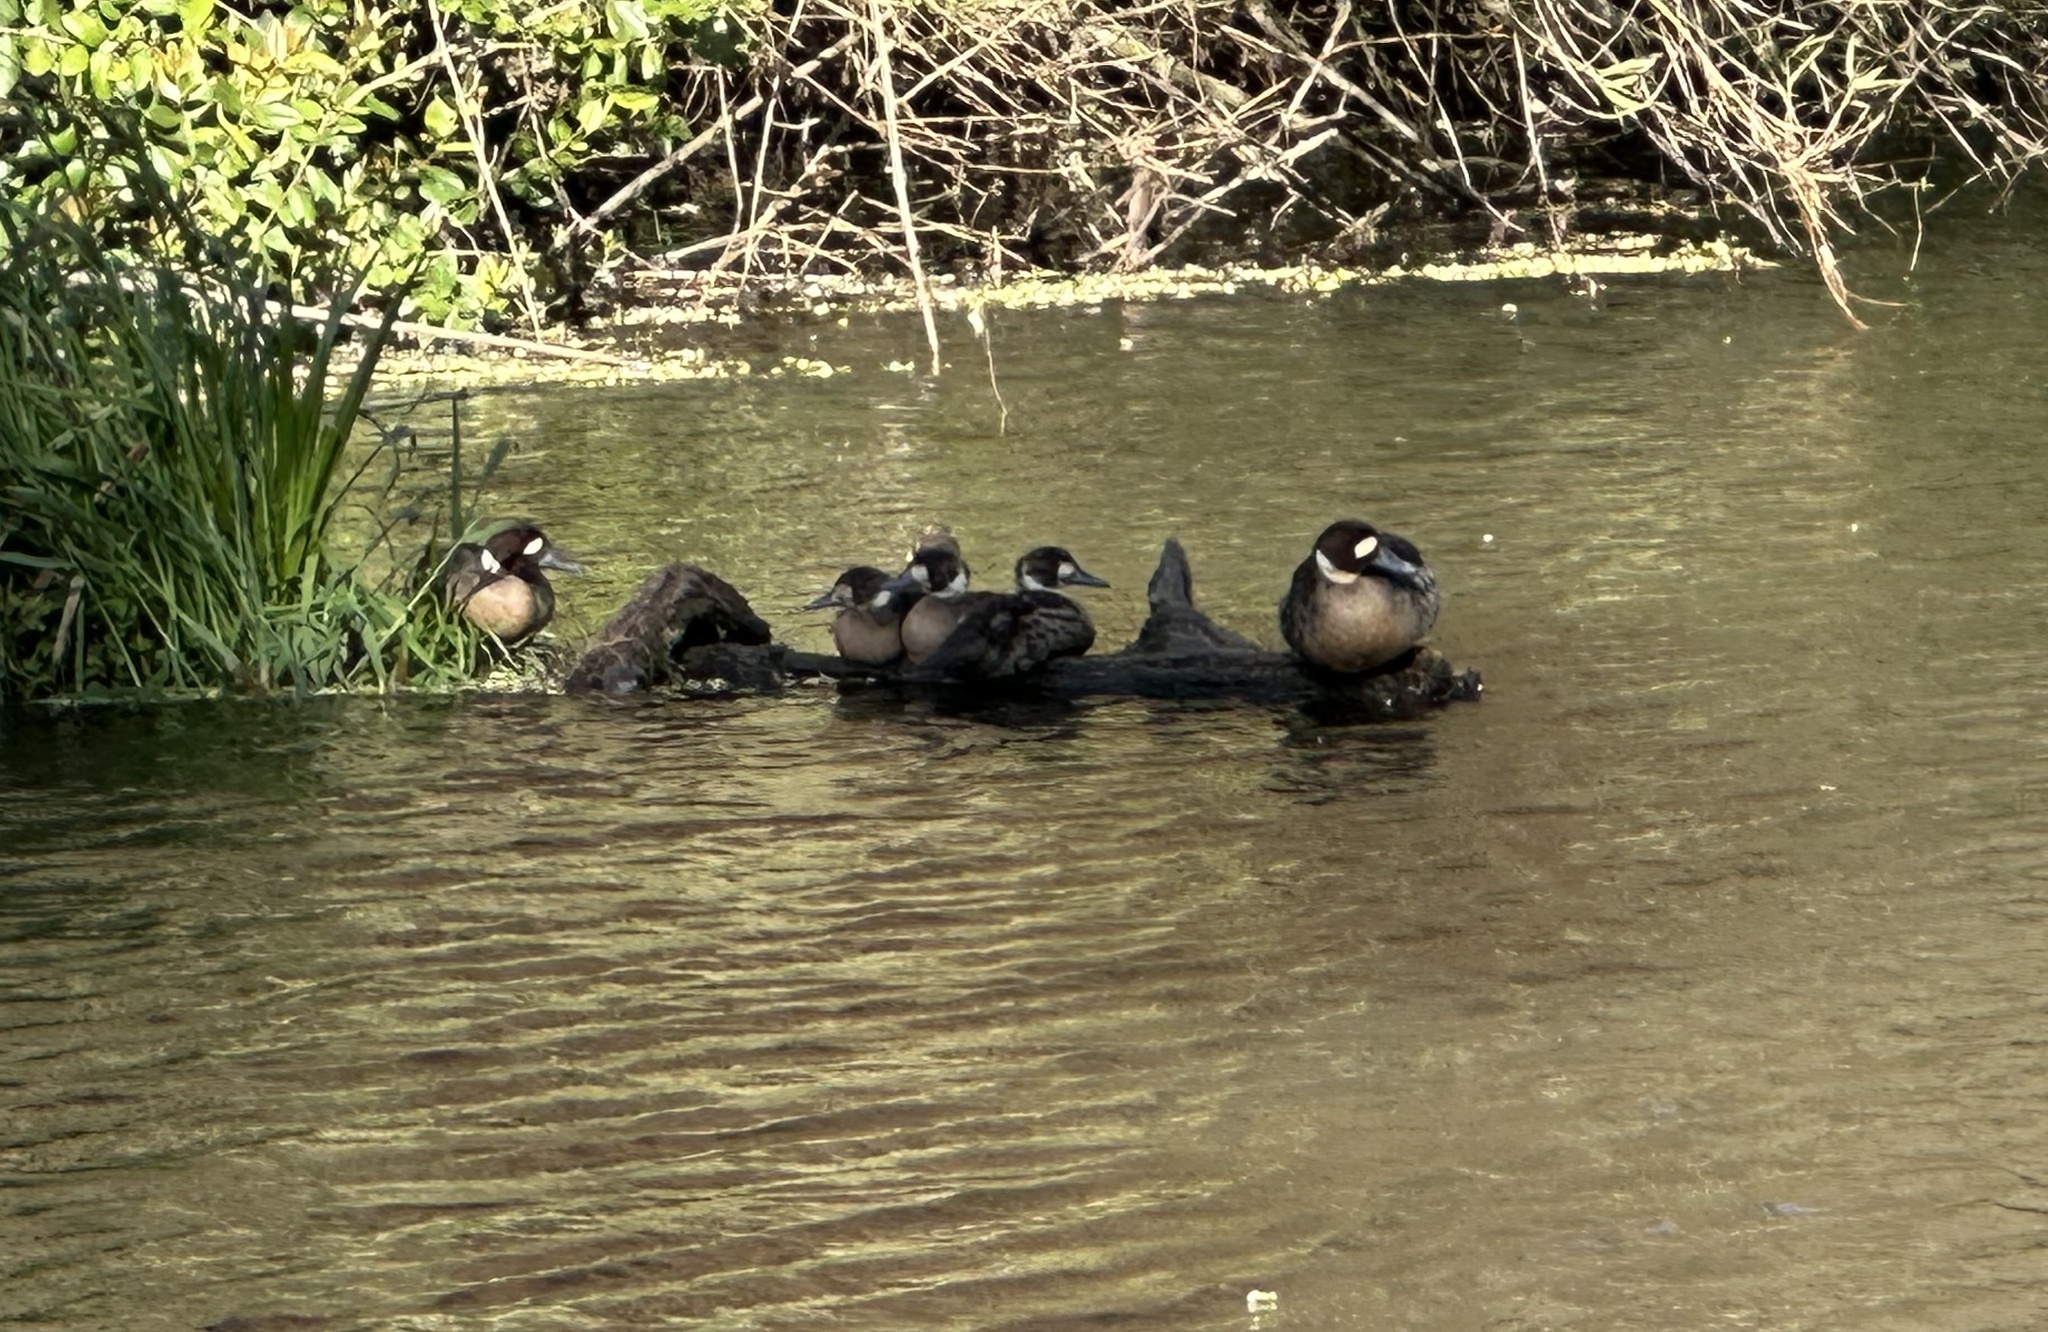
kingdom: Animalia
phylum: Chordata
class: Aves
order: Anseriformes
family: Anatidae
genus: Speculanas
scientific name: Speculanas specularis
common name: Bronze-winged duck
